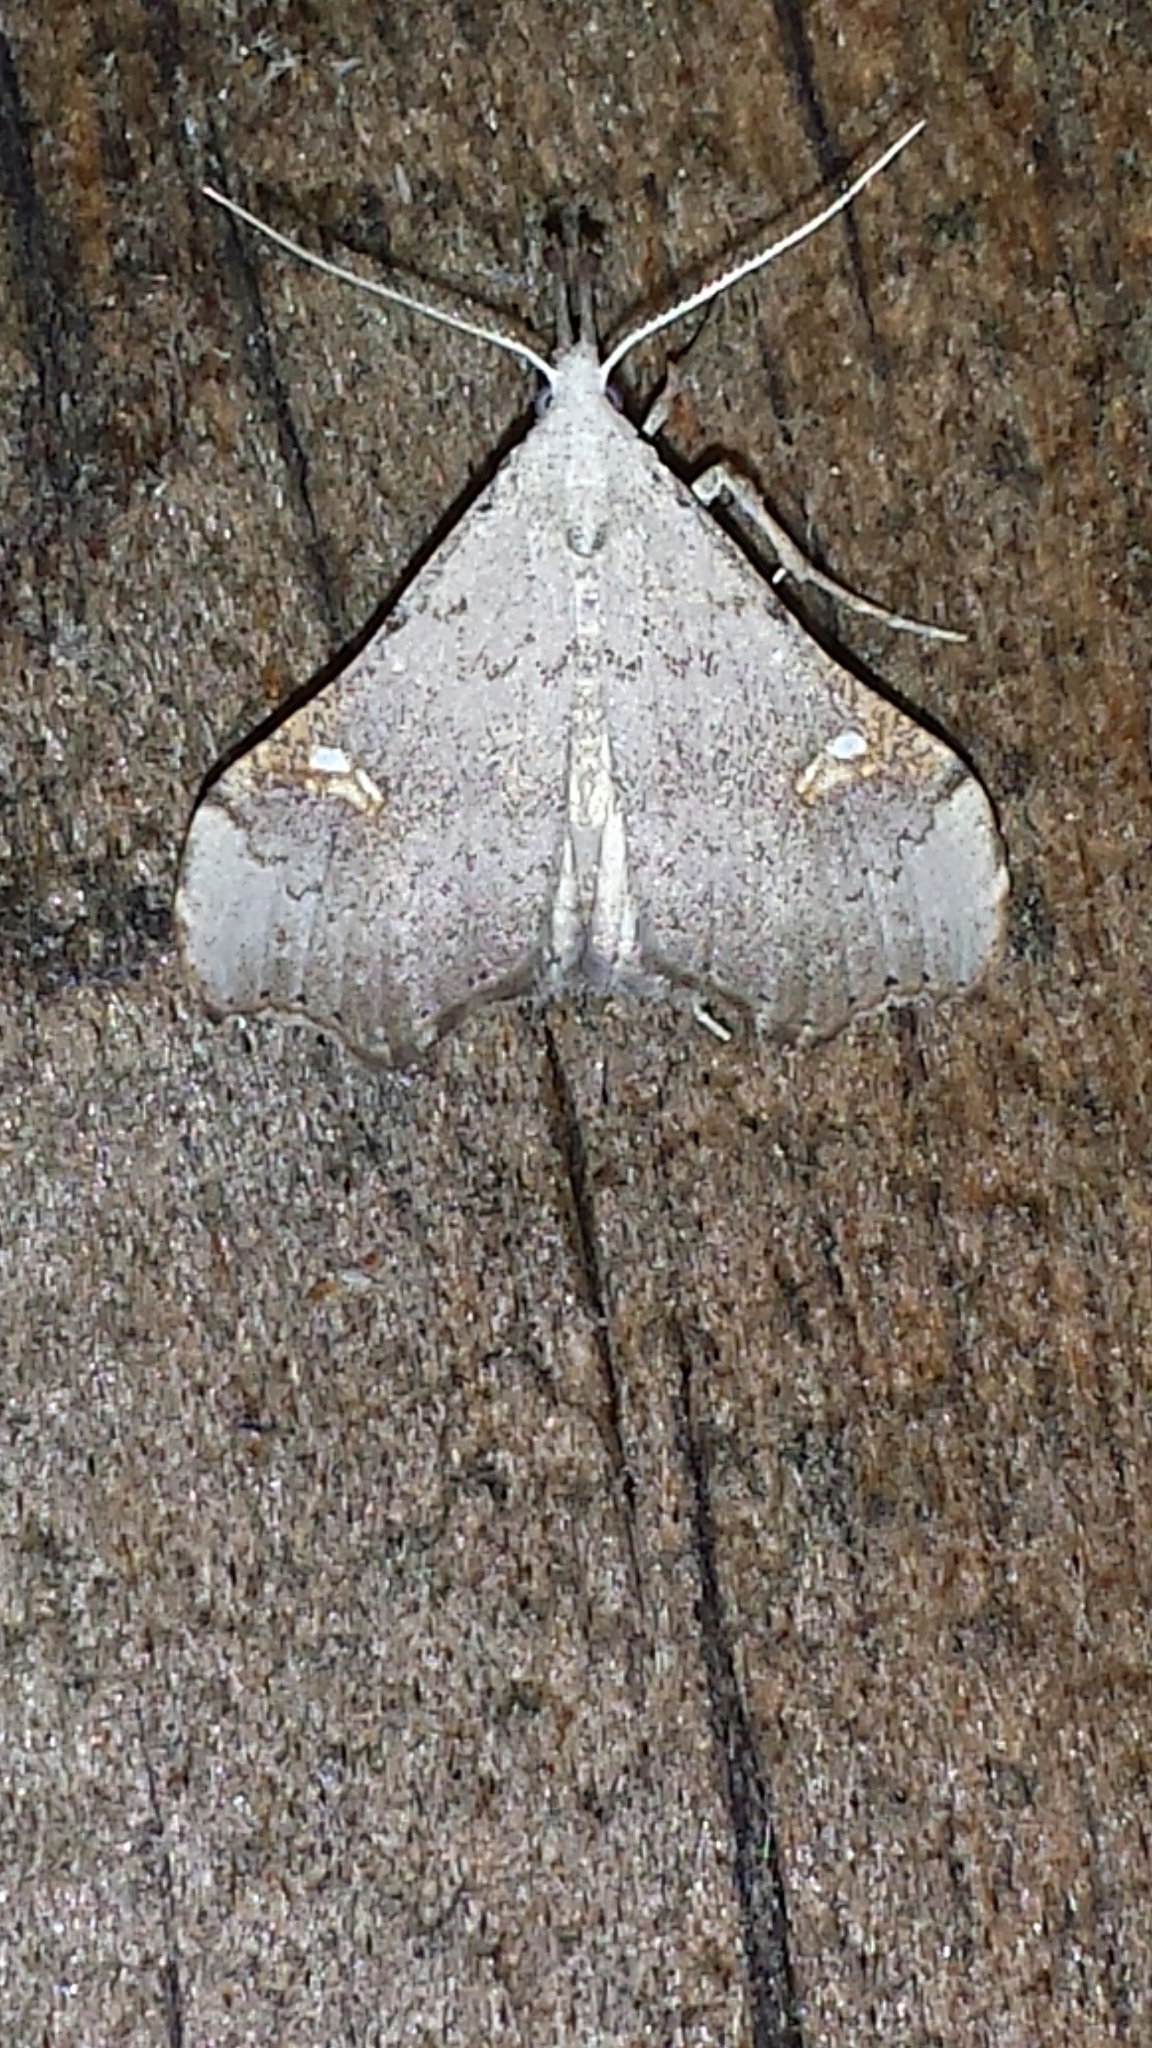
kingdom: Animalia
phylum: Arthropoda
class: Insecta
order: Lepidoptera
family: Erebidae
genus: Redectis
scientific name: Redectis vitrea
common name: White-spotted redectis
